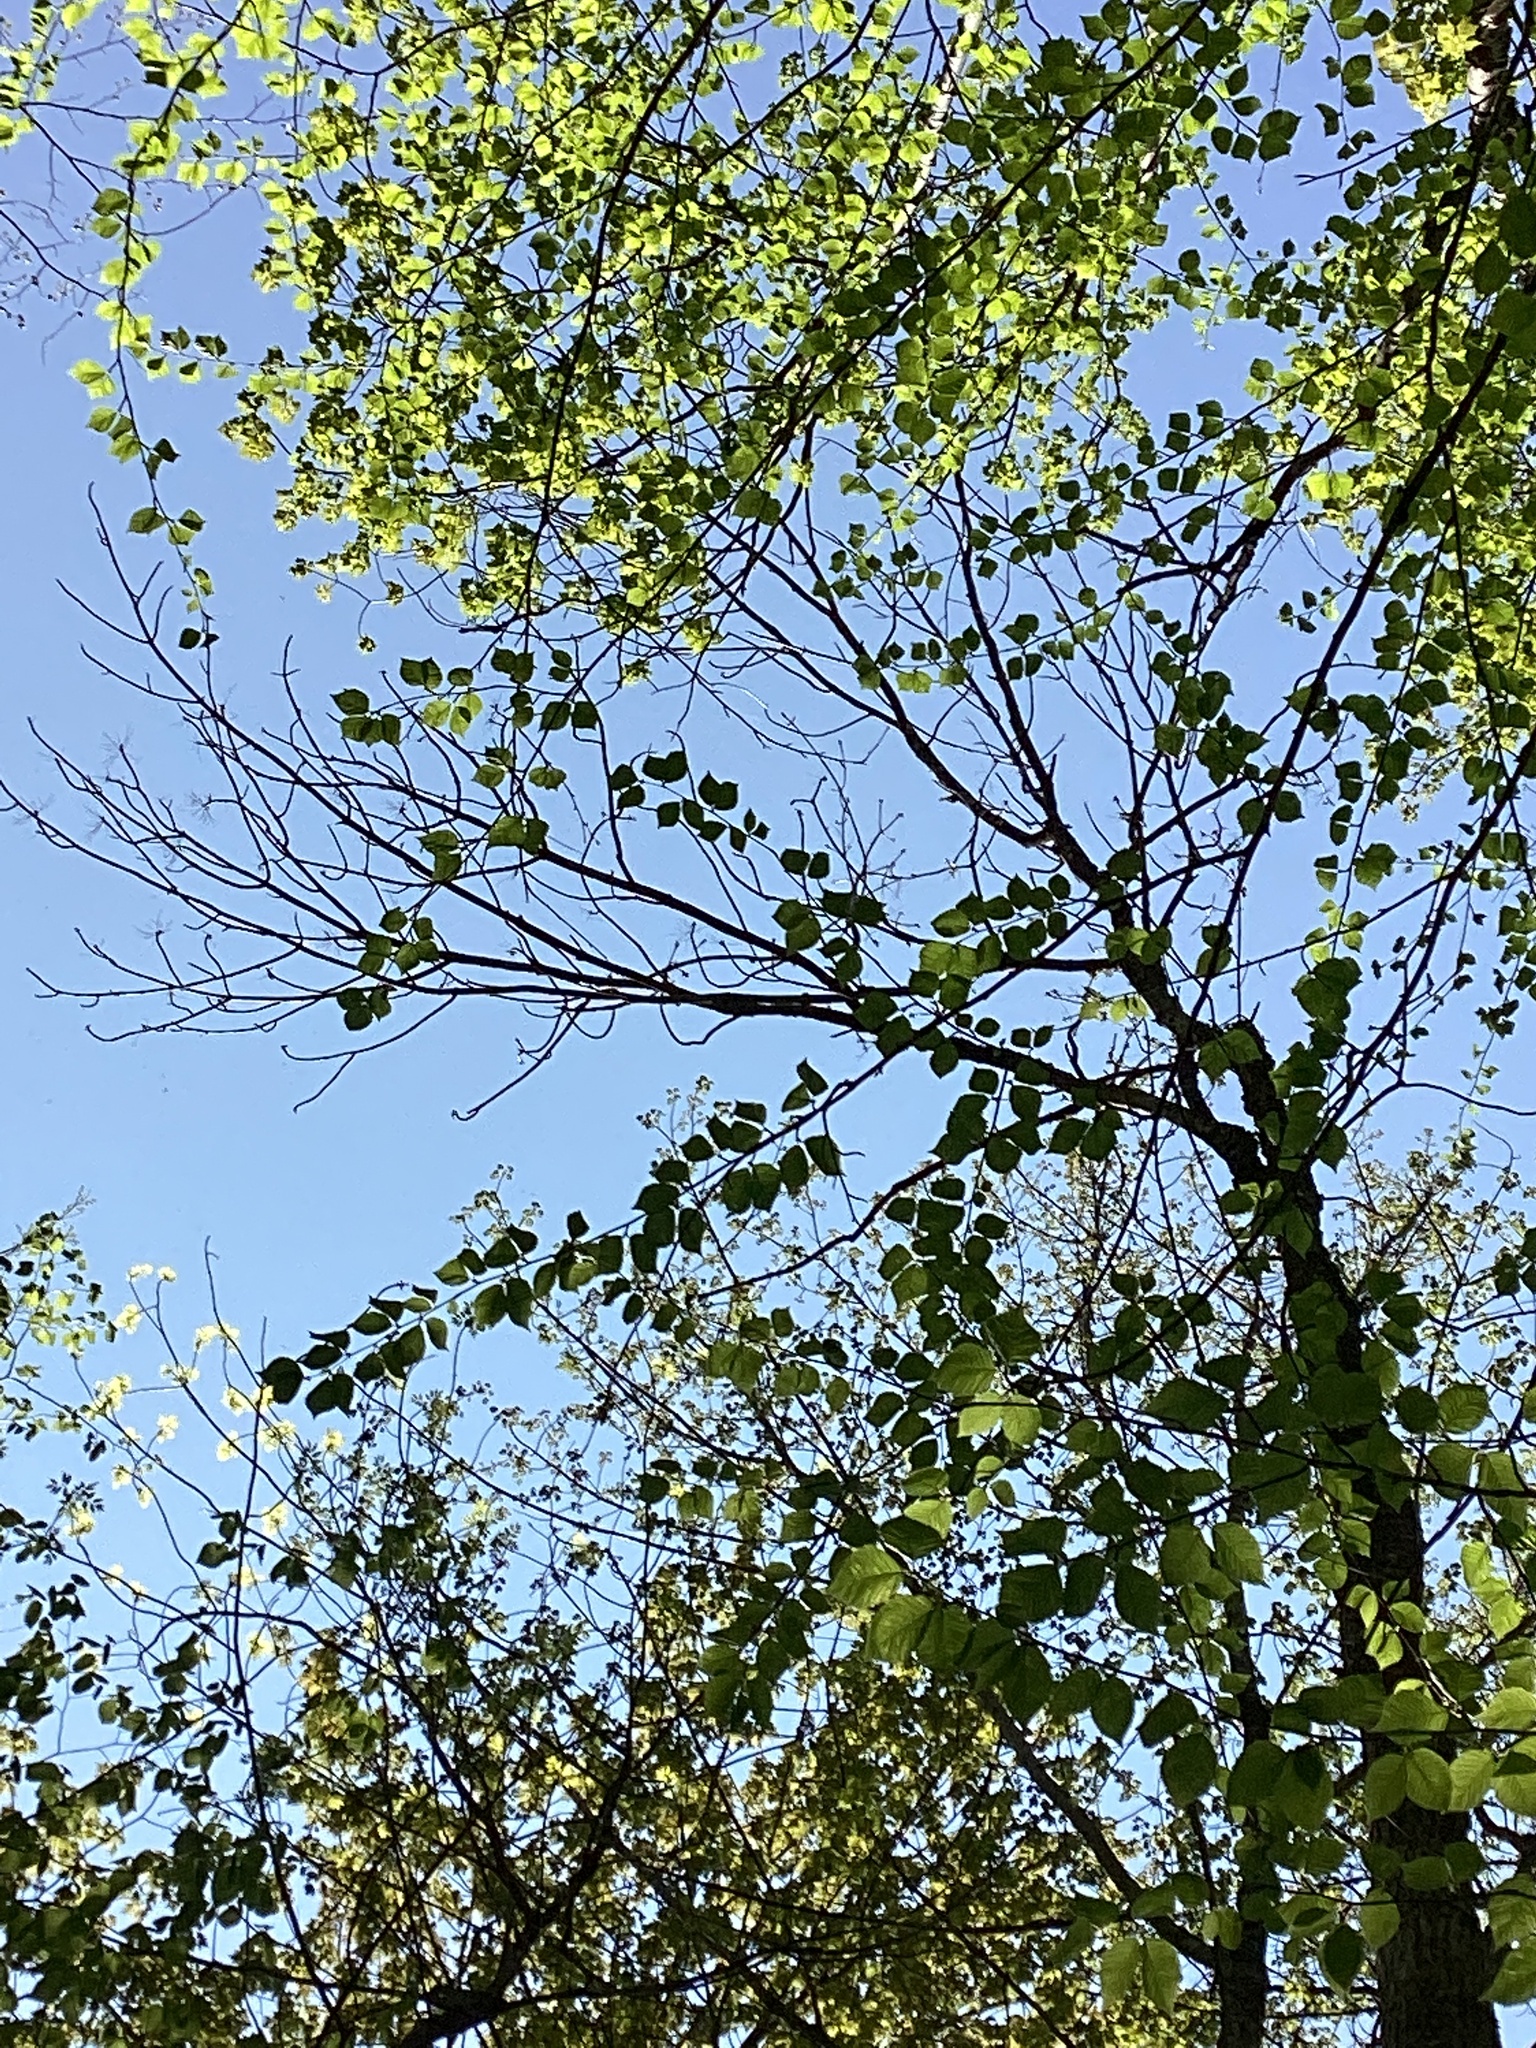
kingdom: Plantae
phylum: Tracheophyta
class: Magnoliopsida
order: Lamiales
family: Oleaceae
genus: Fraxinus
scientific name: Fraxinus nigra
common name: Black ash
